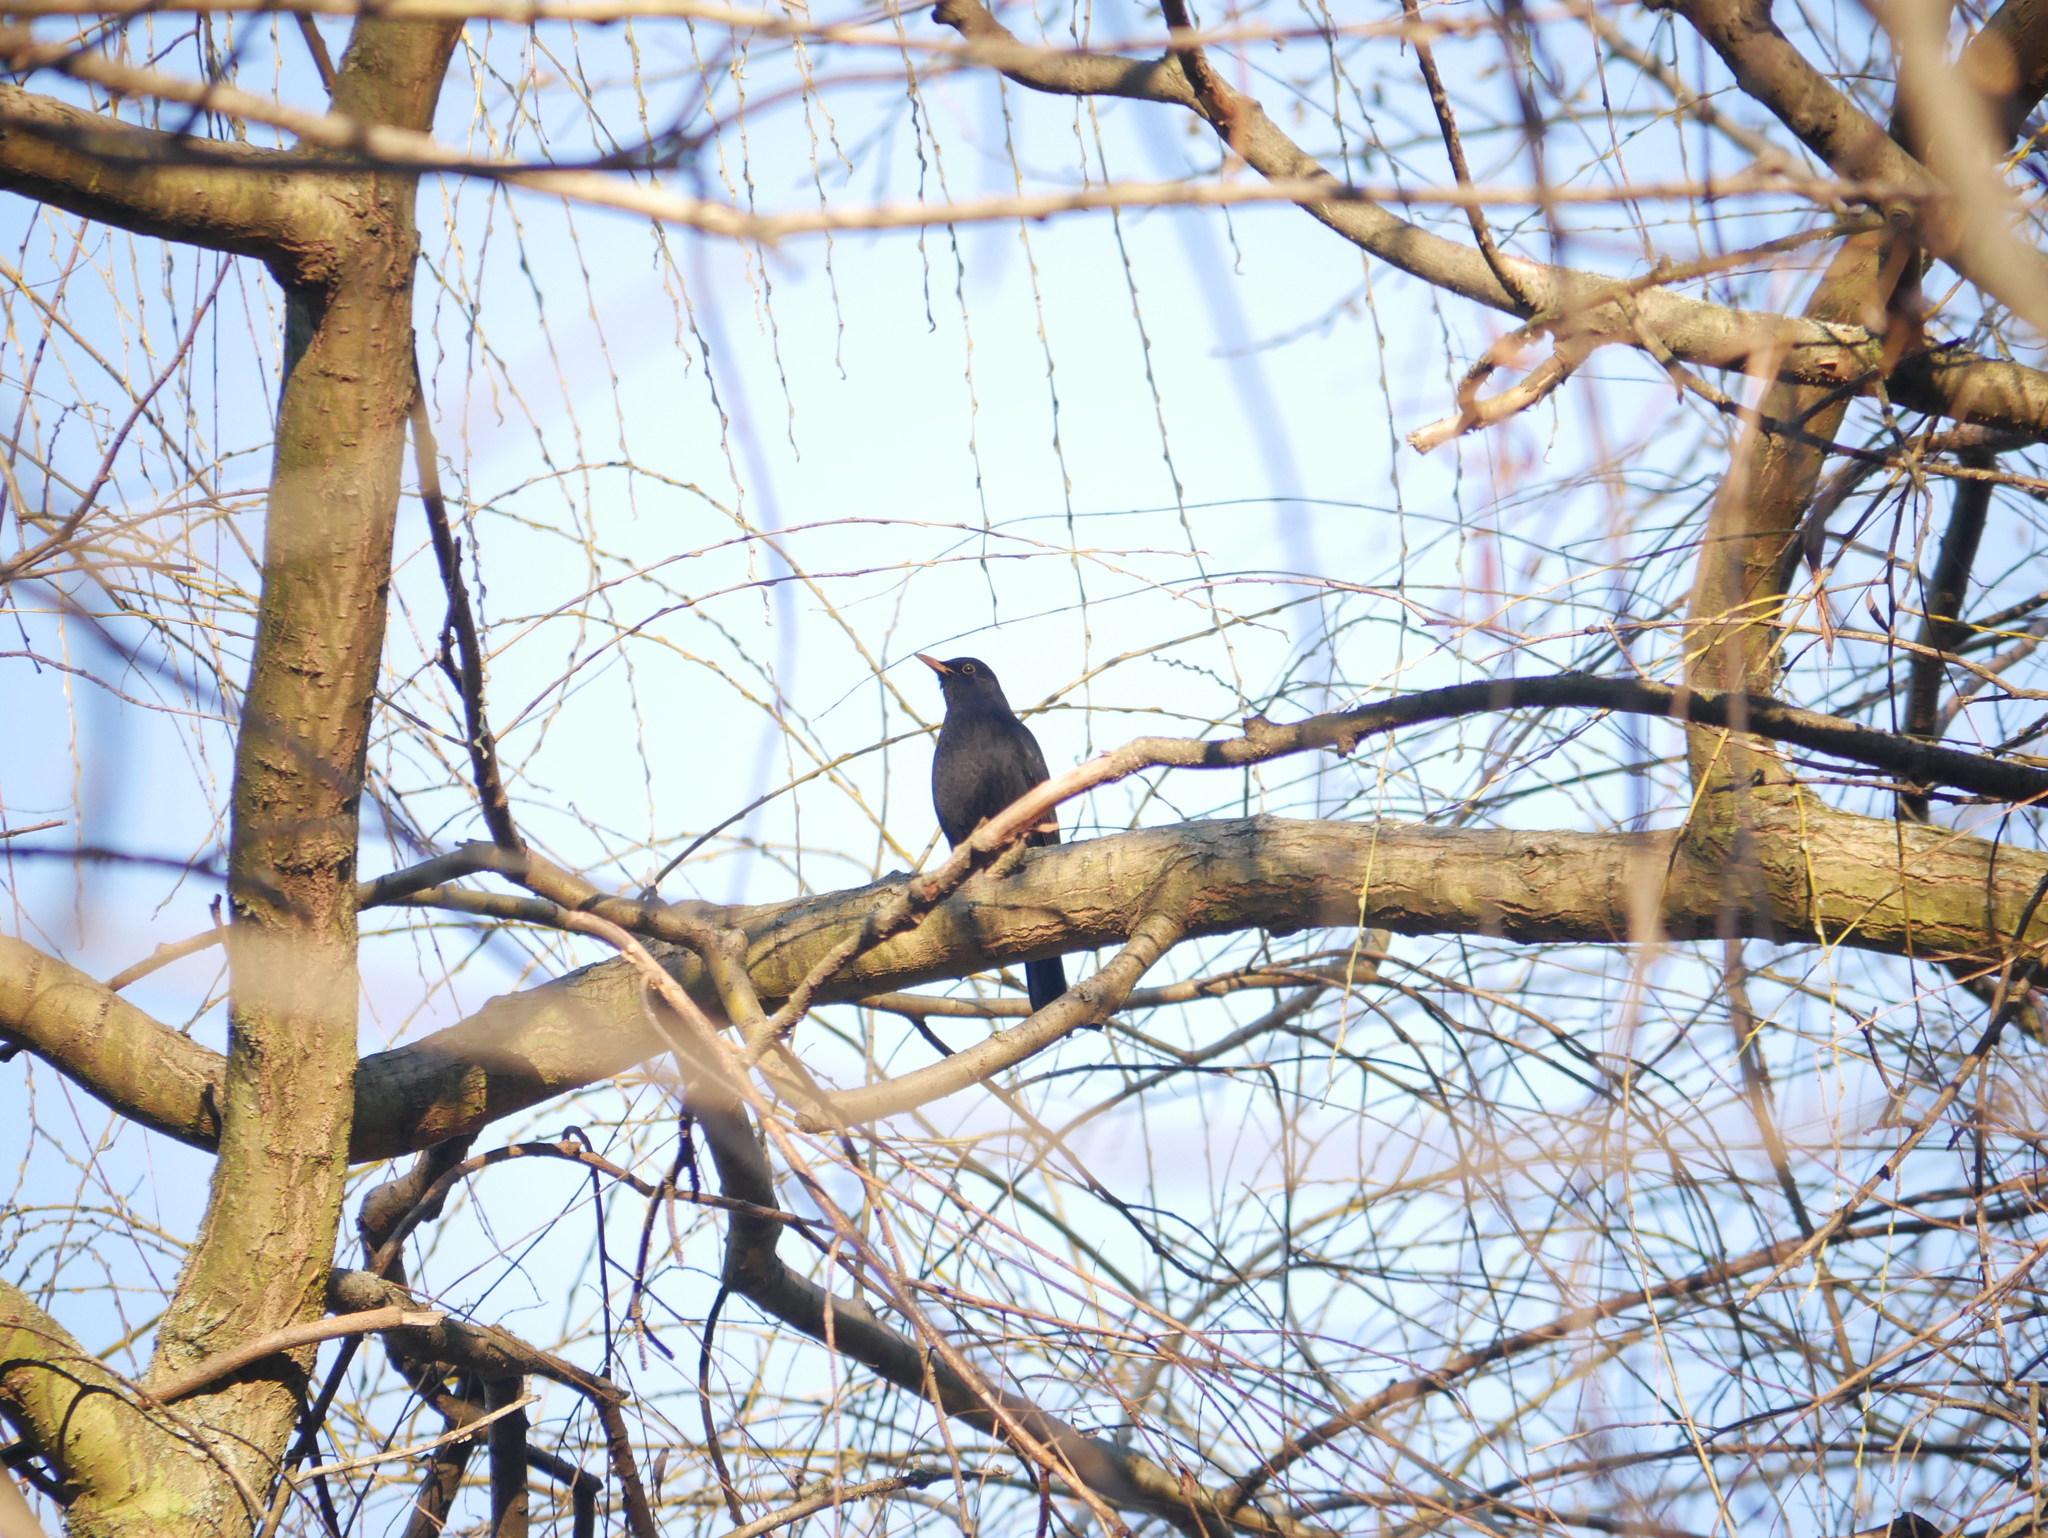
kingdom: Animalia
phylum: Chordata
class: Aves
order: Passeriformes
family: Turdidae
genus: Turdus
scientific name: Turdus merula
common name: Common blackbird
